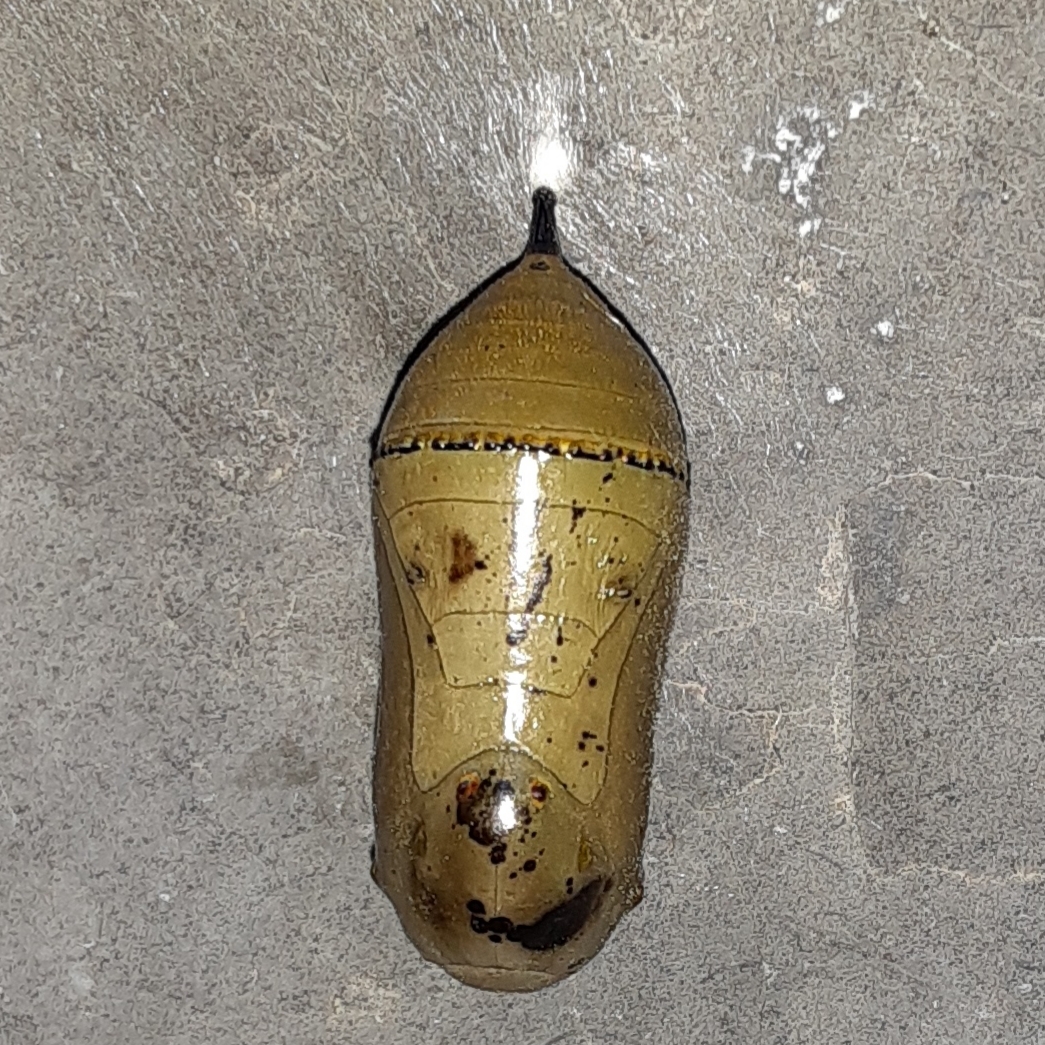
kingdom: Animalia
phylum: Arthropoda
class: Insecta
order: Lepidoptera
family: Nymphalidae
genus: Danaus
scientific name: Danaus plexippus
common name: Monarch
